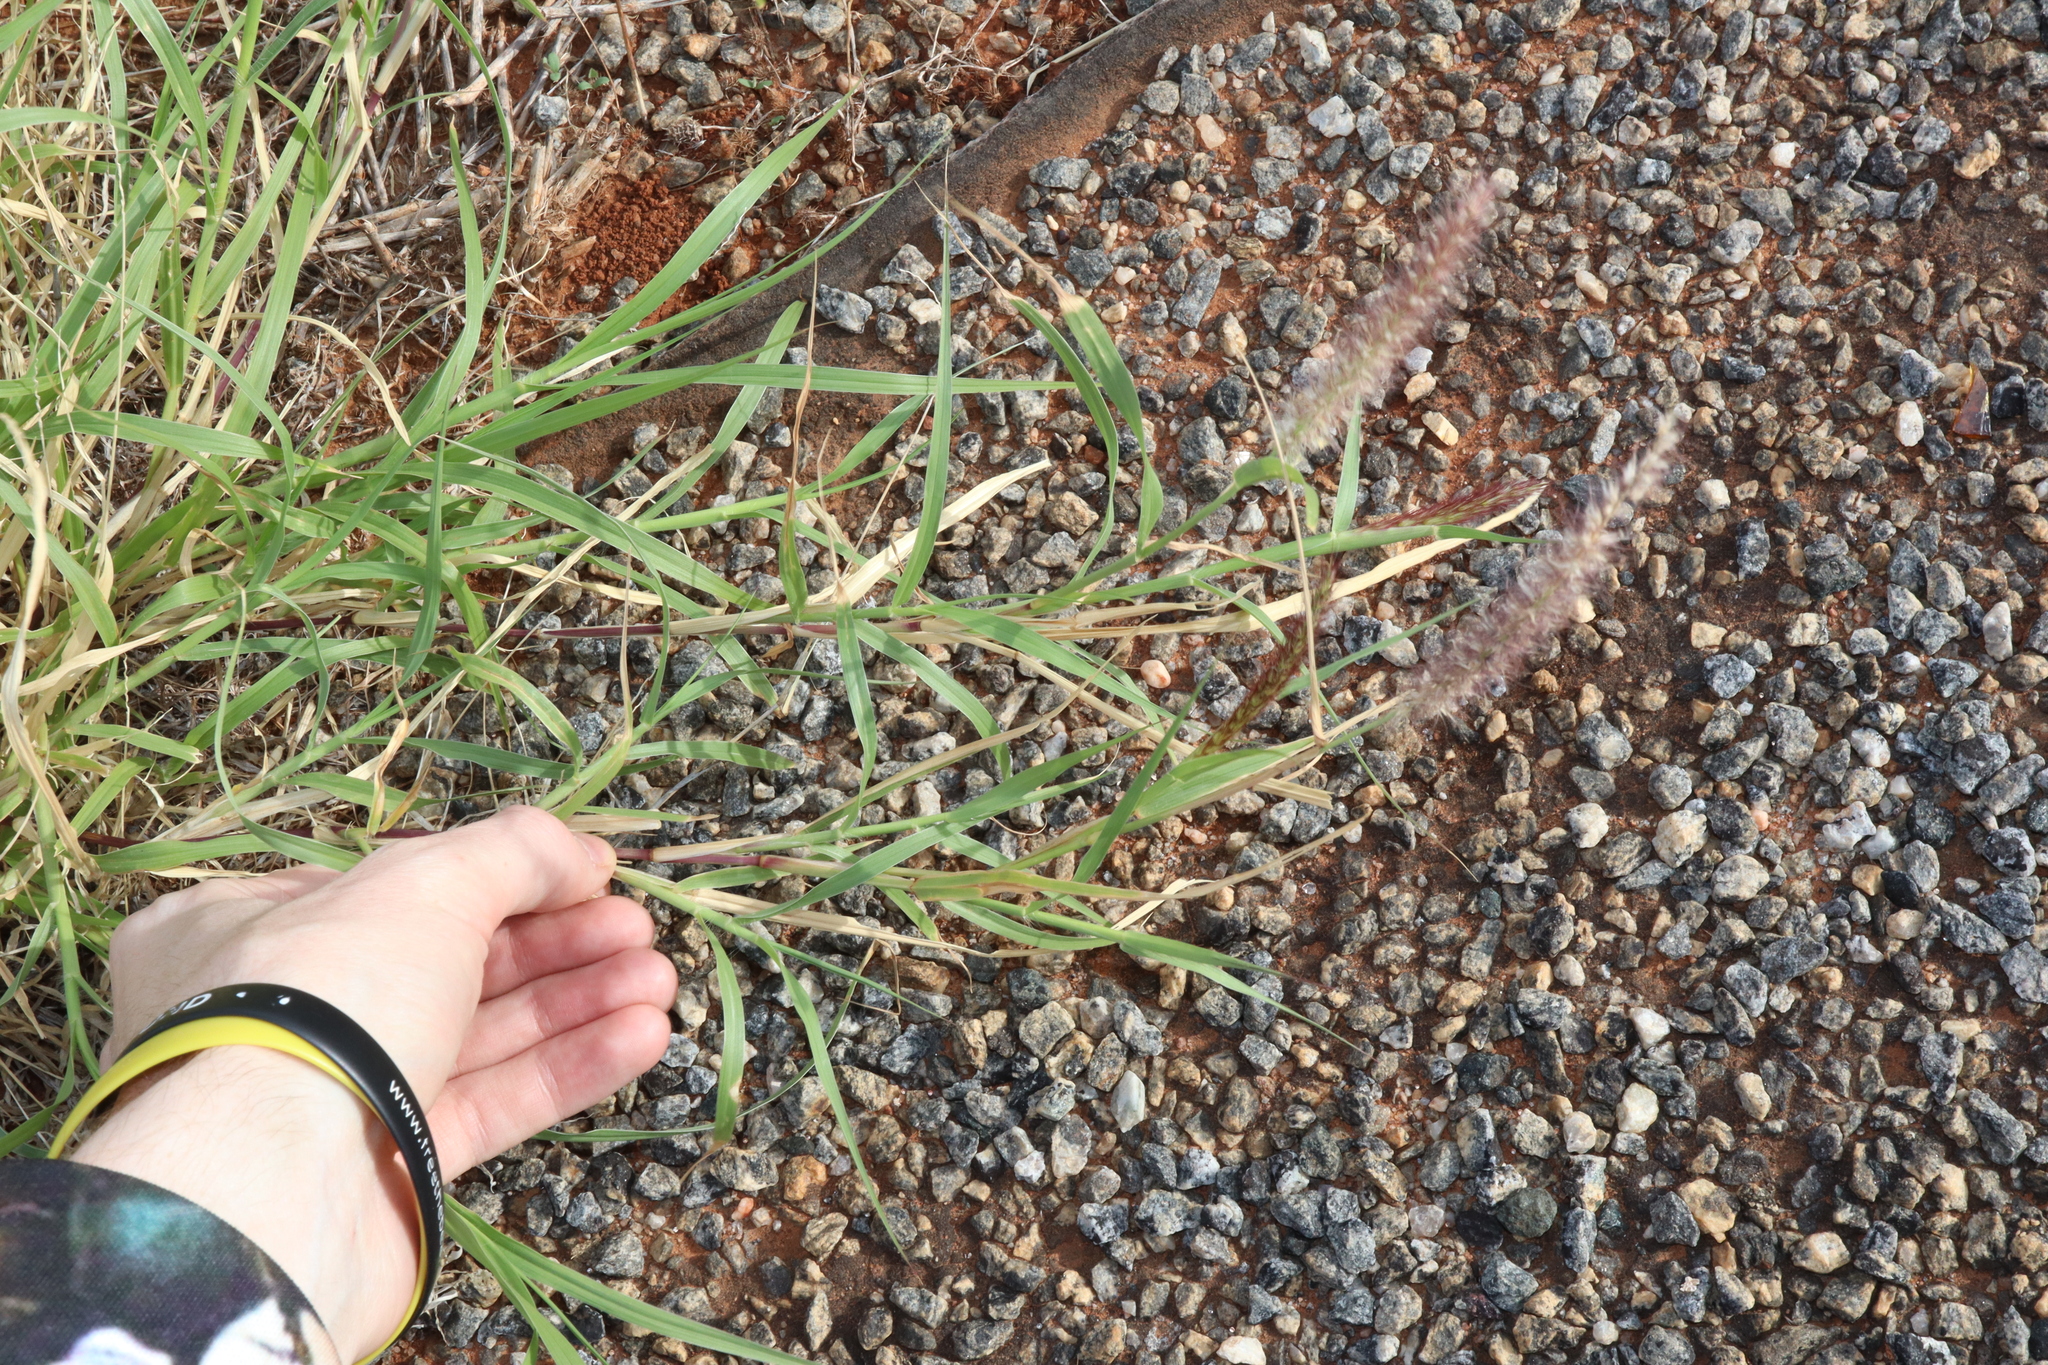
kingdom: Plantae
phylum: Tracheophyta
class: Liliopsida
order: Poales
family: Poaceae
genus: Cenchrus
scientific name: Cenchrus ciliaris
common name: Buffelgrass
